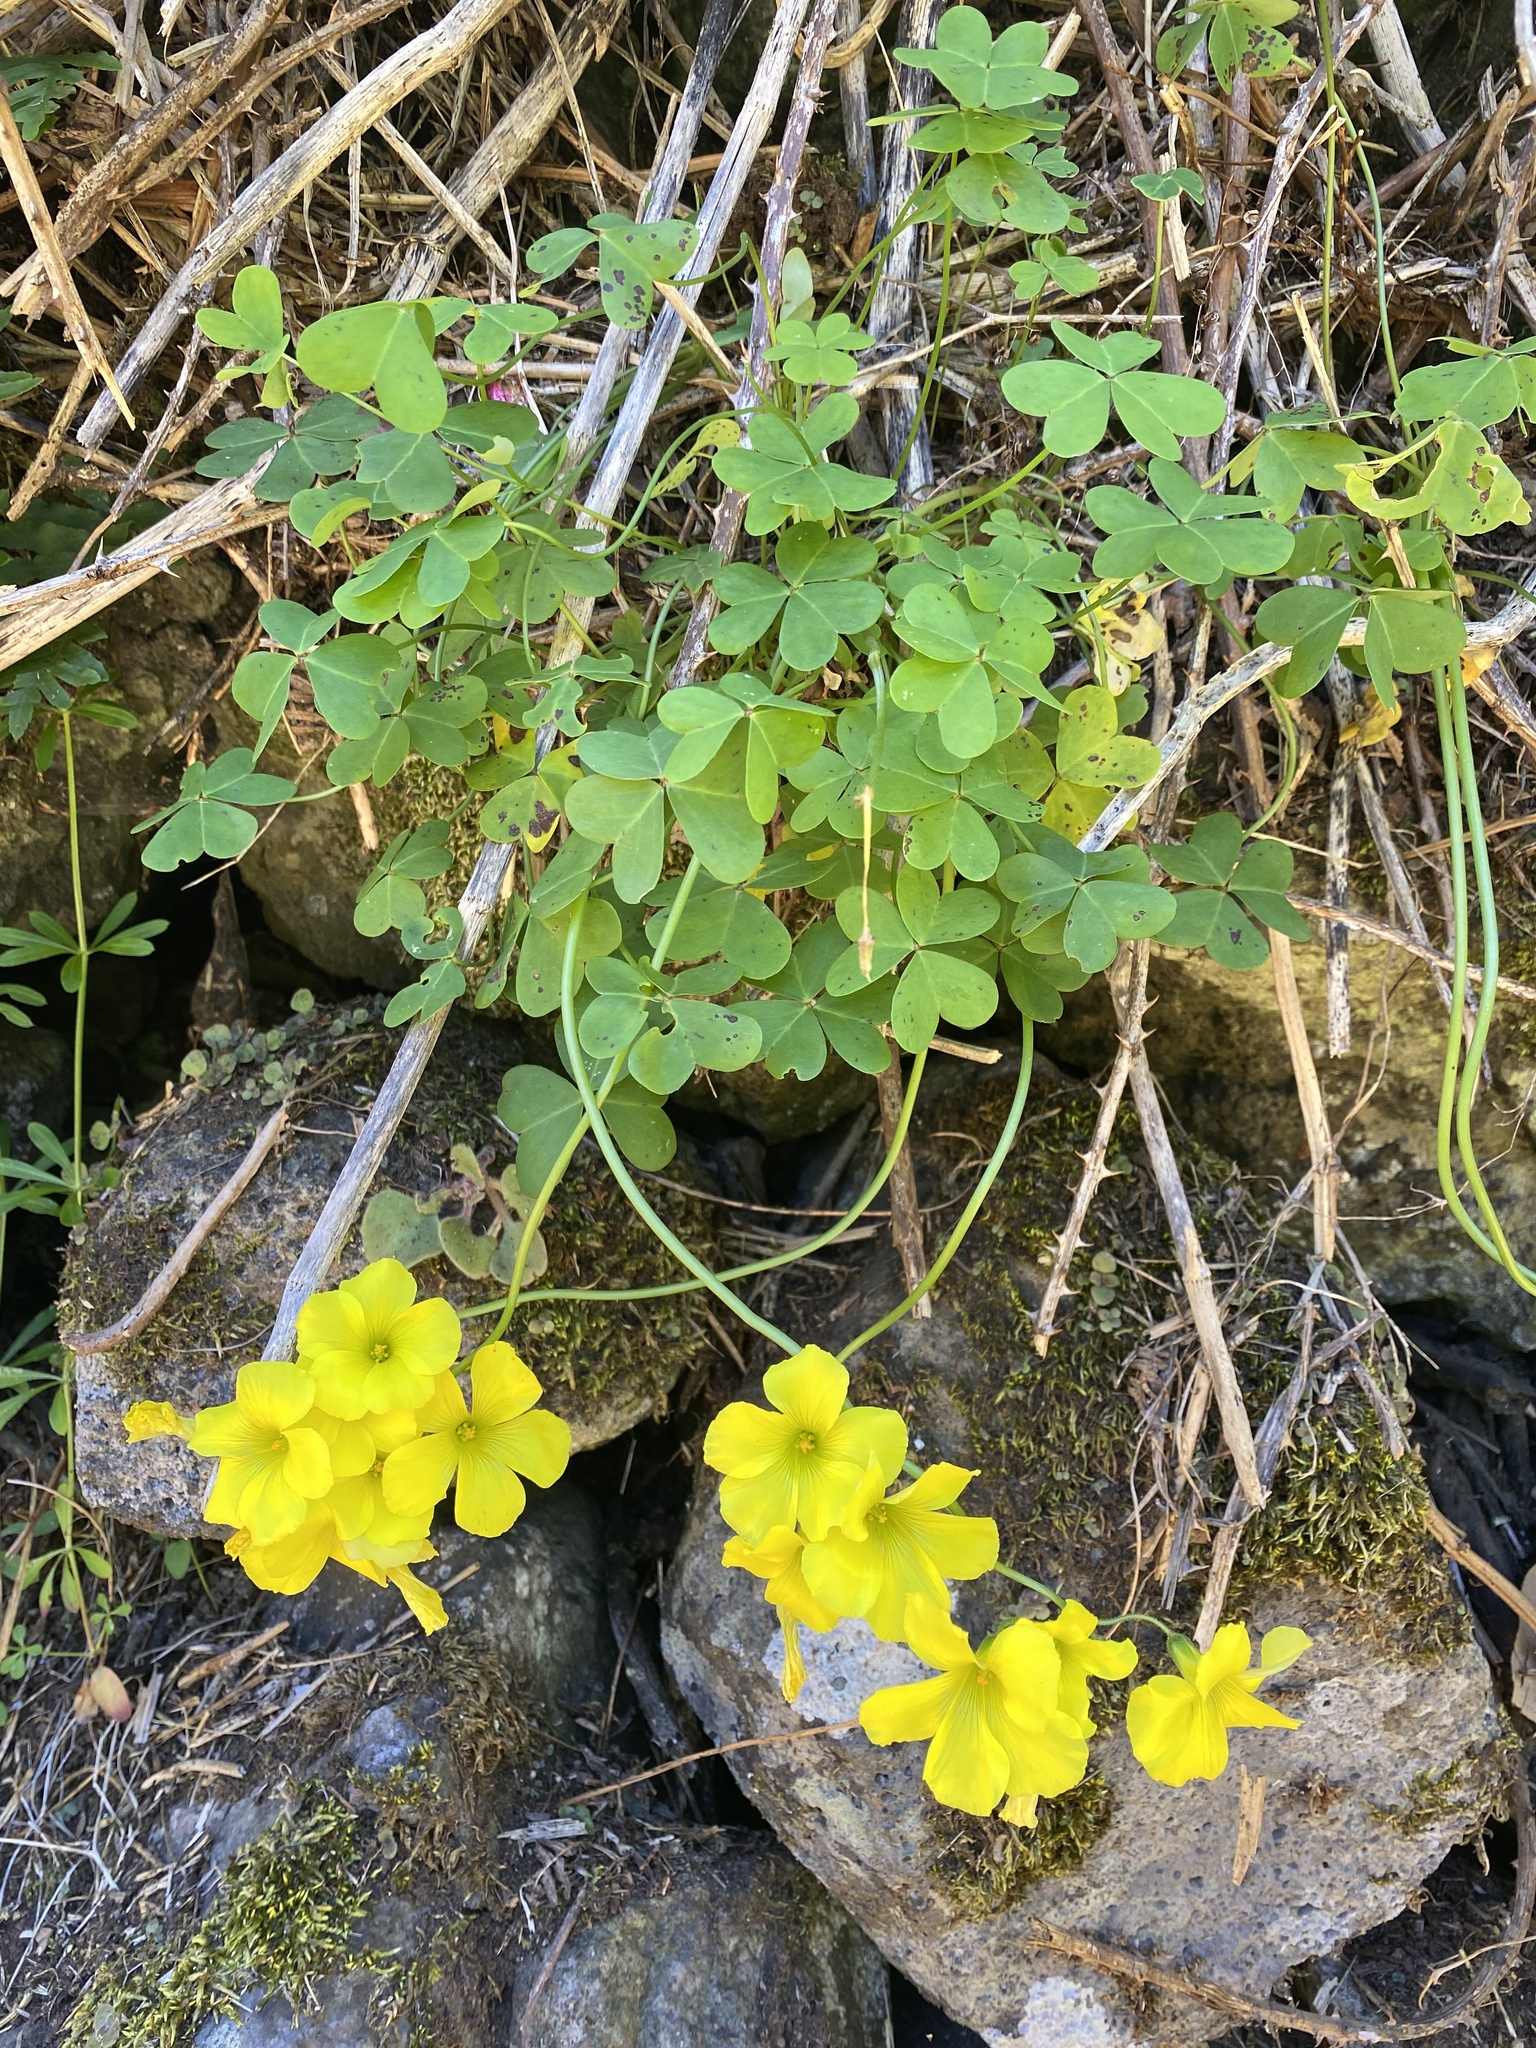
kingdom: Plantae
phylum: Tracheophyta
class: Magnoliopsida
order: Oxalidales
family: Oxalidaceae
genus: Oxalis
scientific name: Oxalis pes-caprae
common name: Bermuda-buttercup
